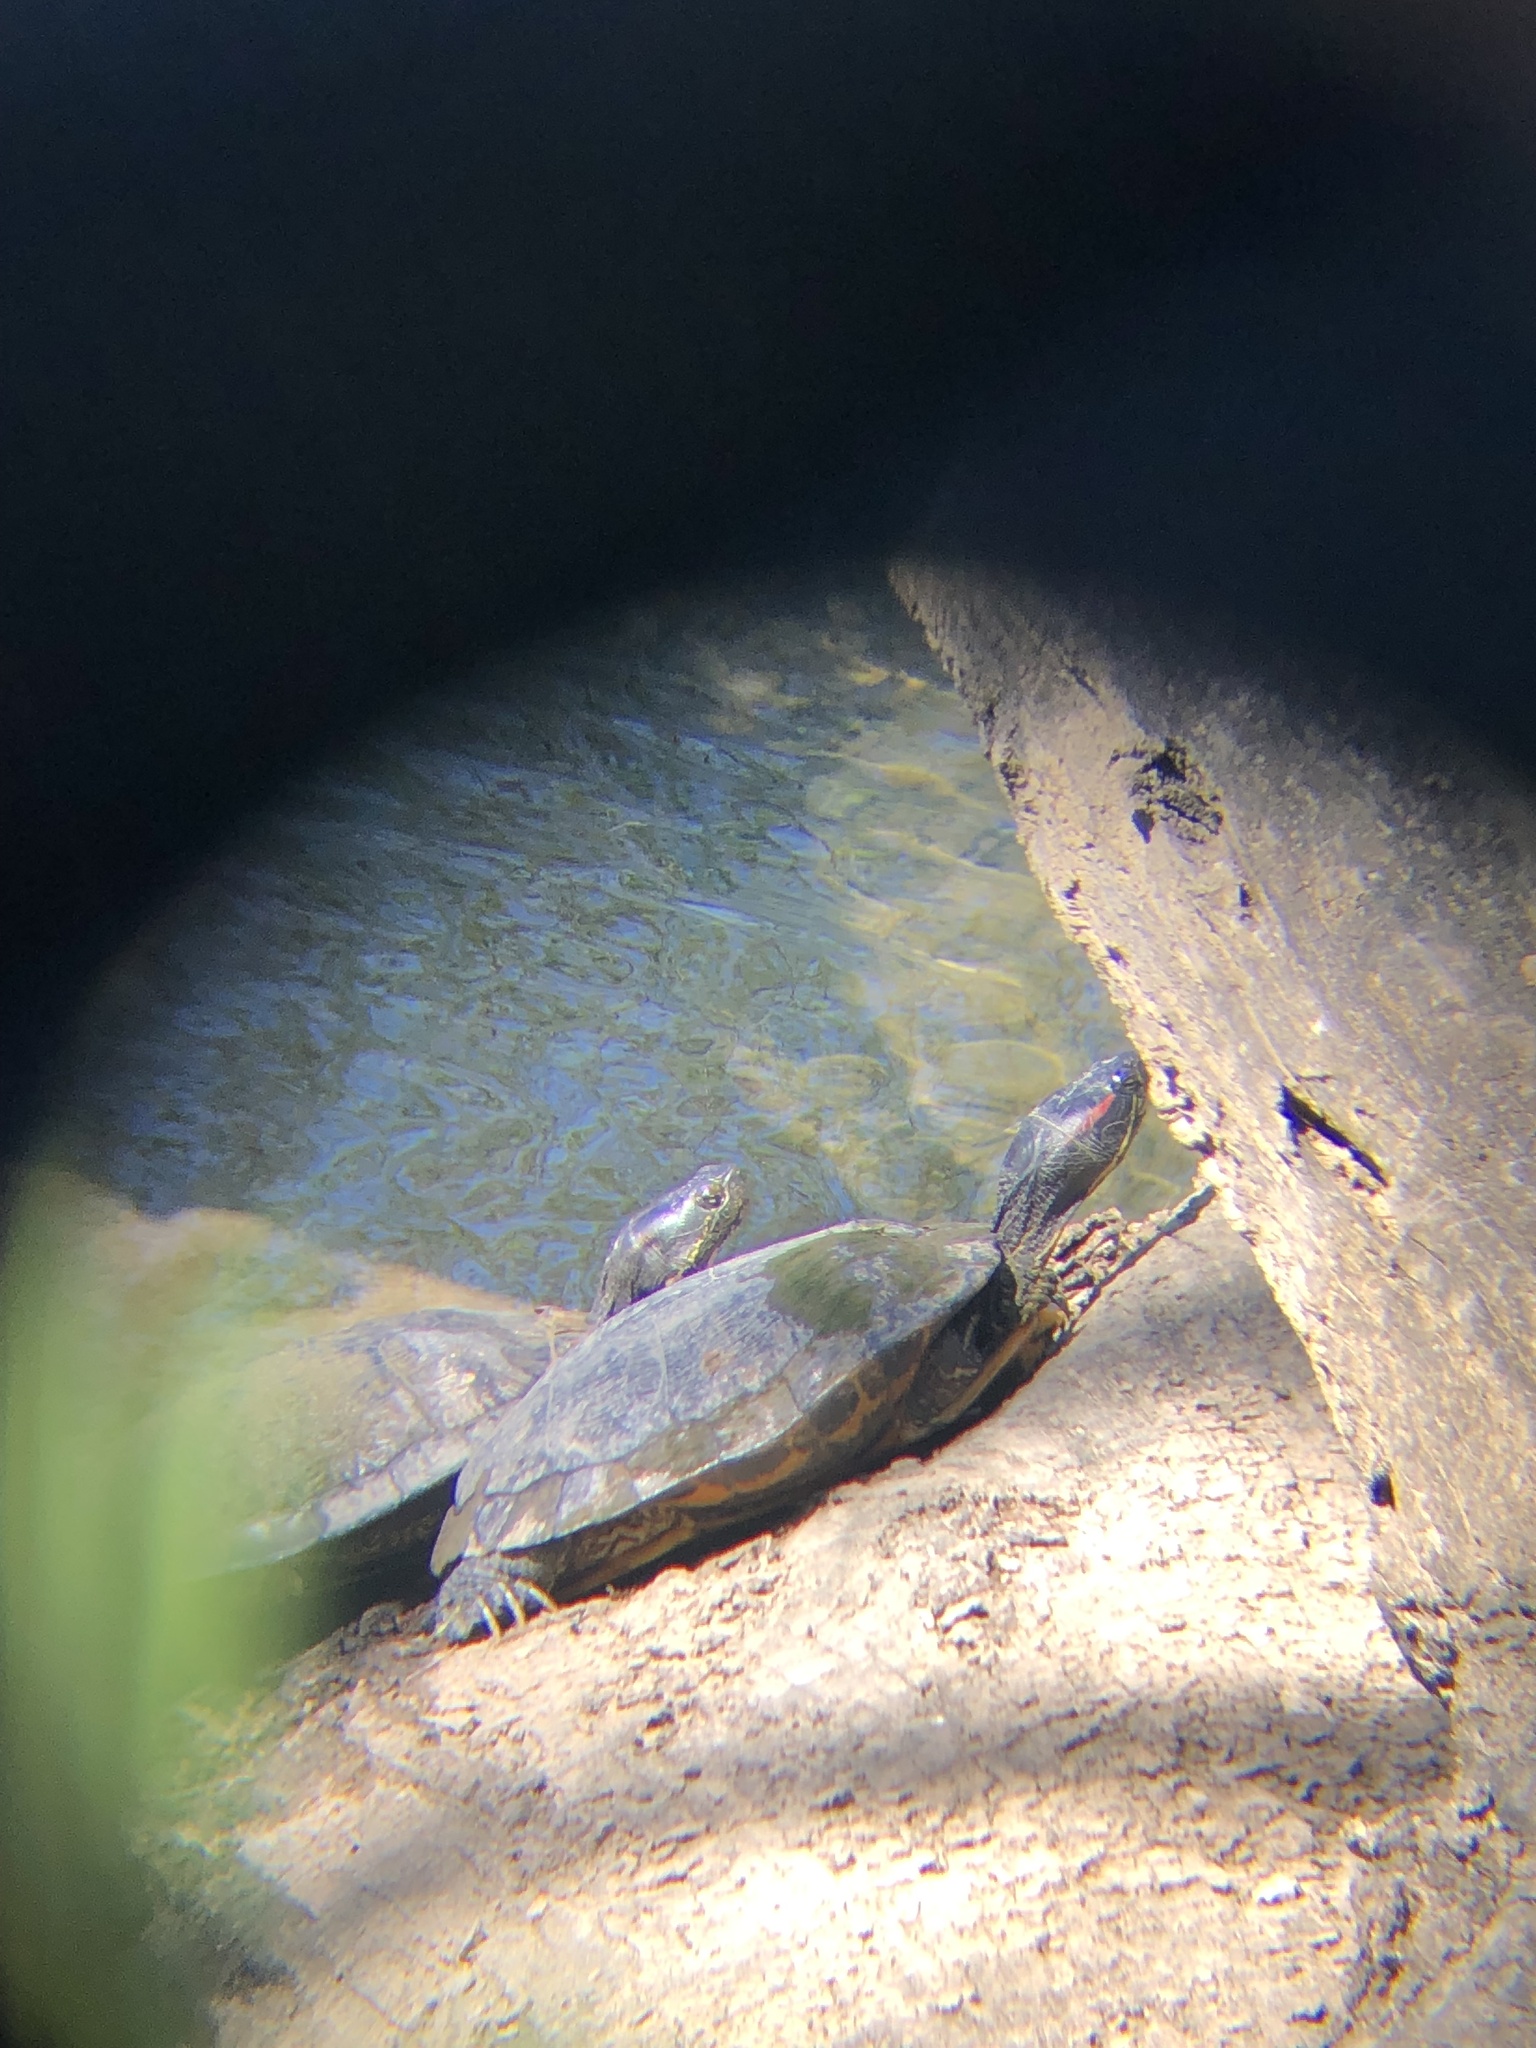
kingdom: Animalia
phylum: Chordata
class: Testudines
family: Emydidae
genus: Trachemys
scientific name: Trachemys scripta
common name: Slider
